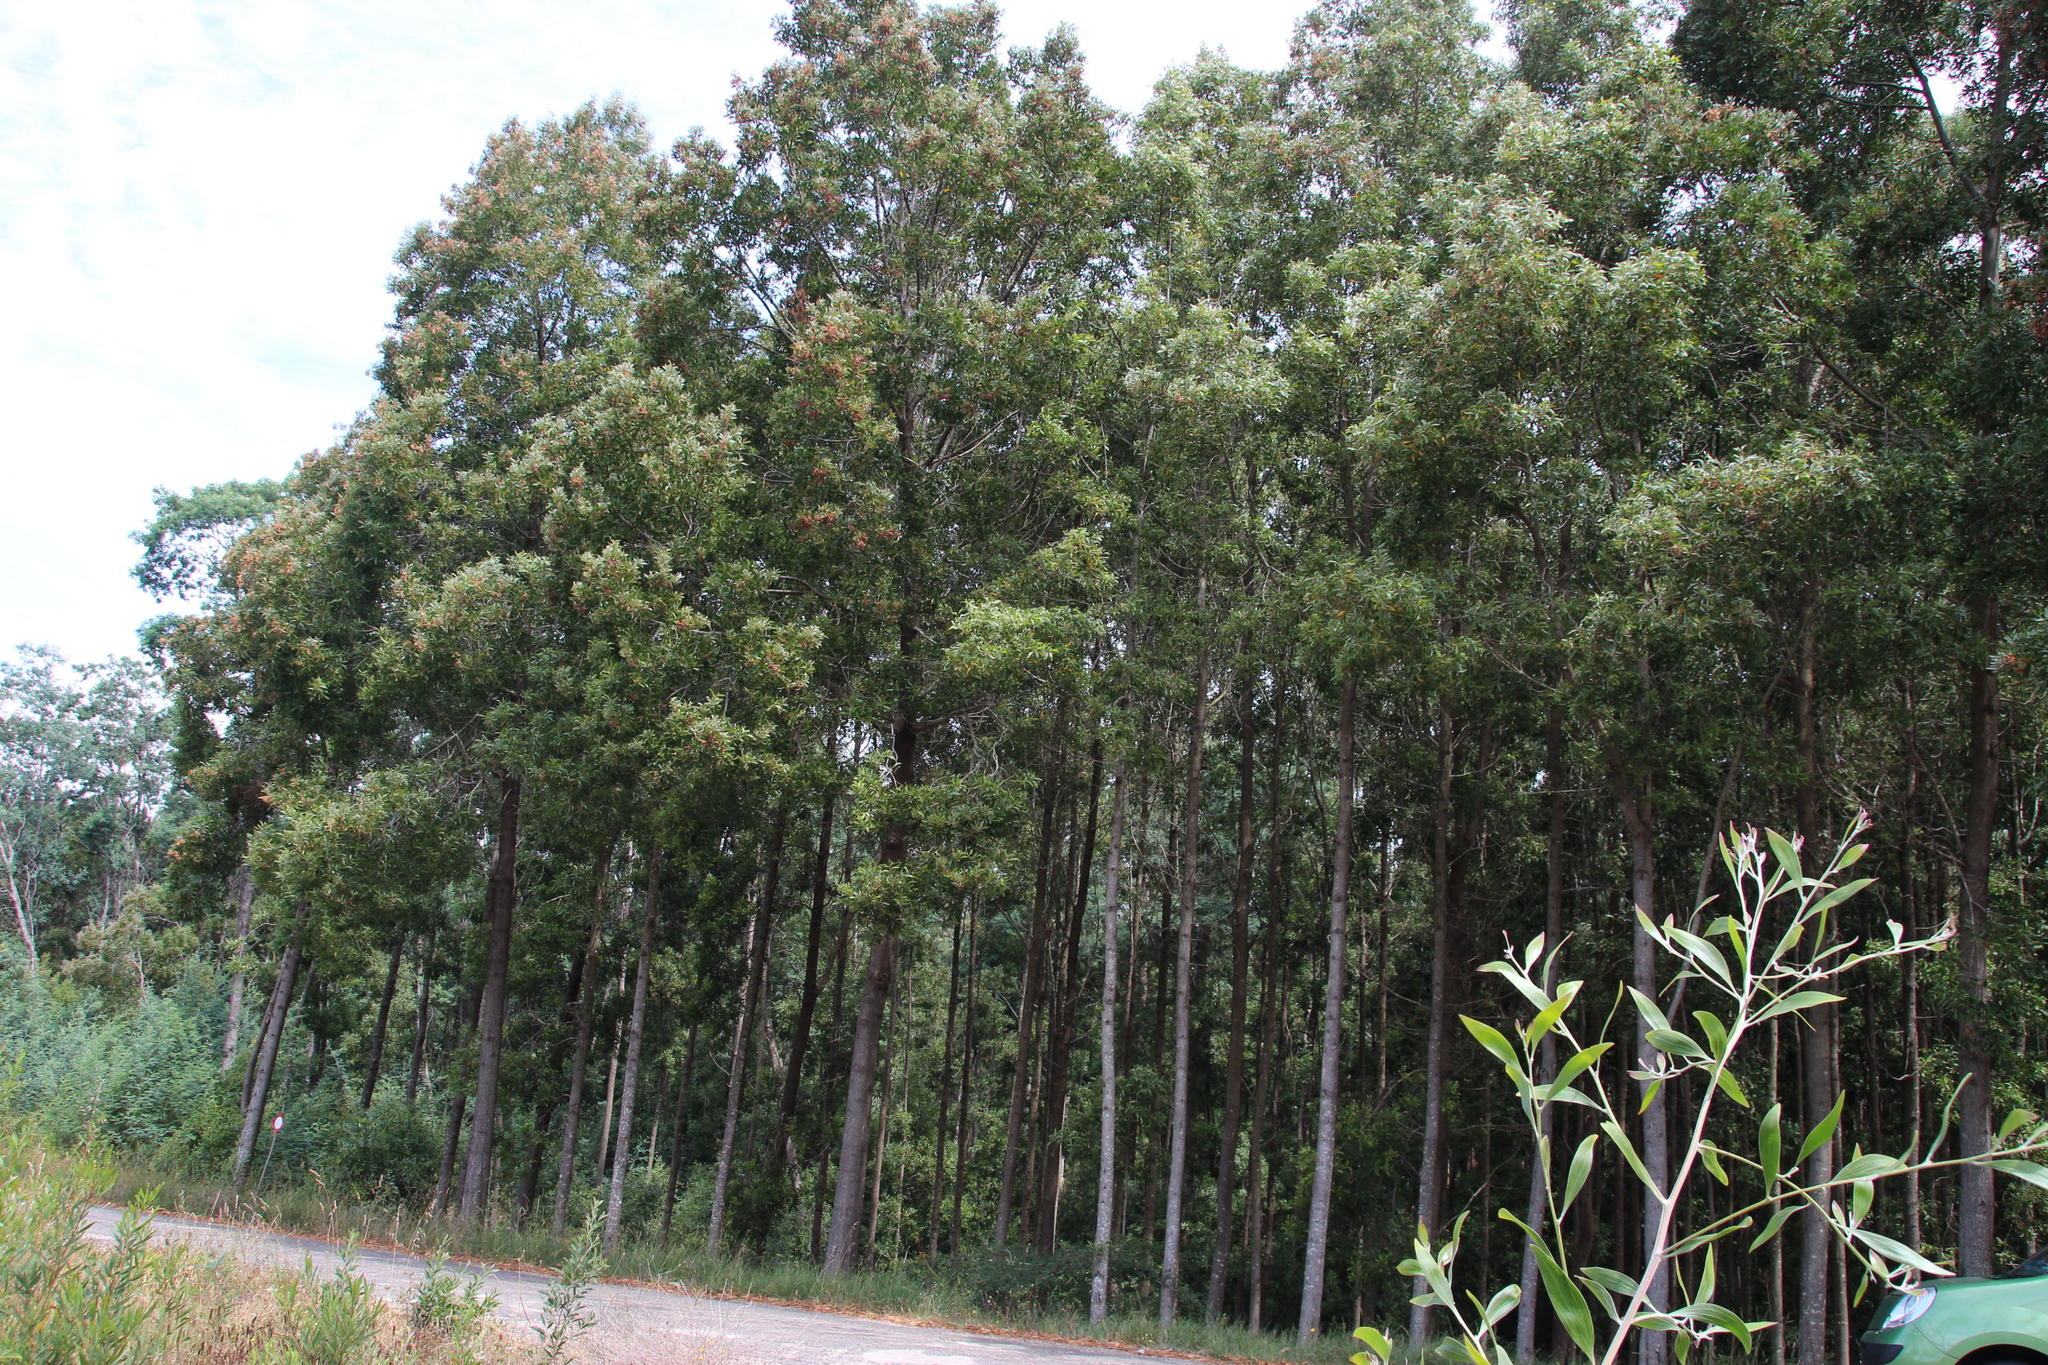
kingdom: Plantae
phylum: Tracheophyta
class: Magnoliopsida
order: Fabales
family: Fabaceae
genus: Acacia
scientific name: Acacia melanoxylon
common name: Blackwood
